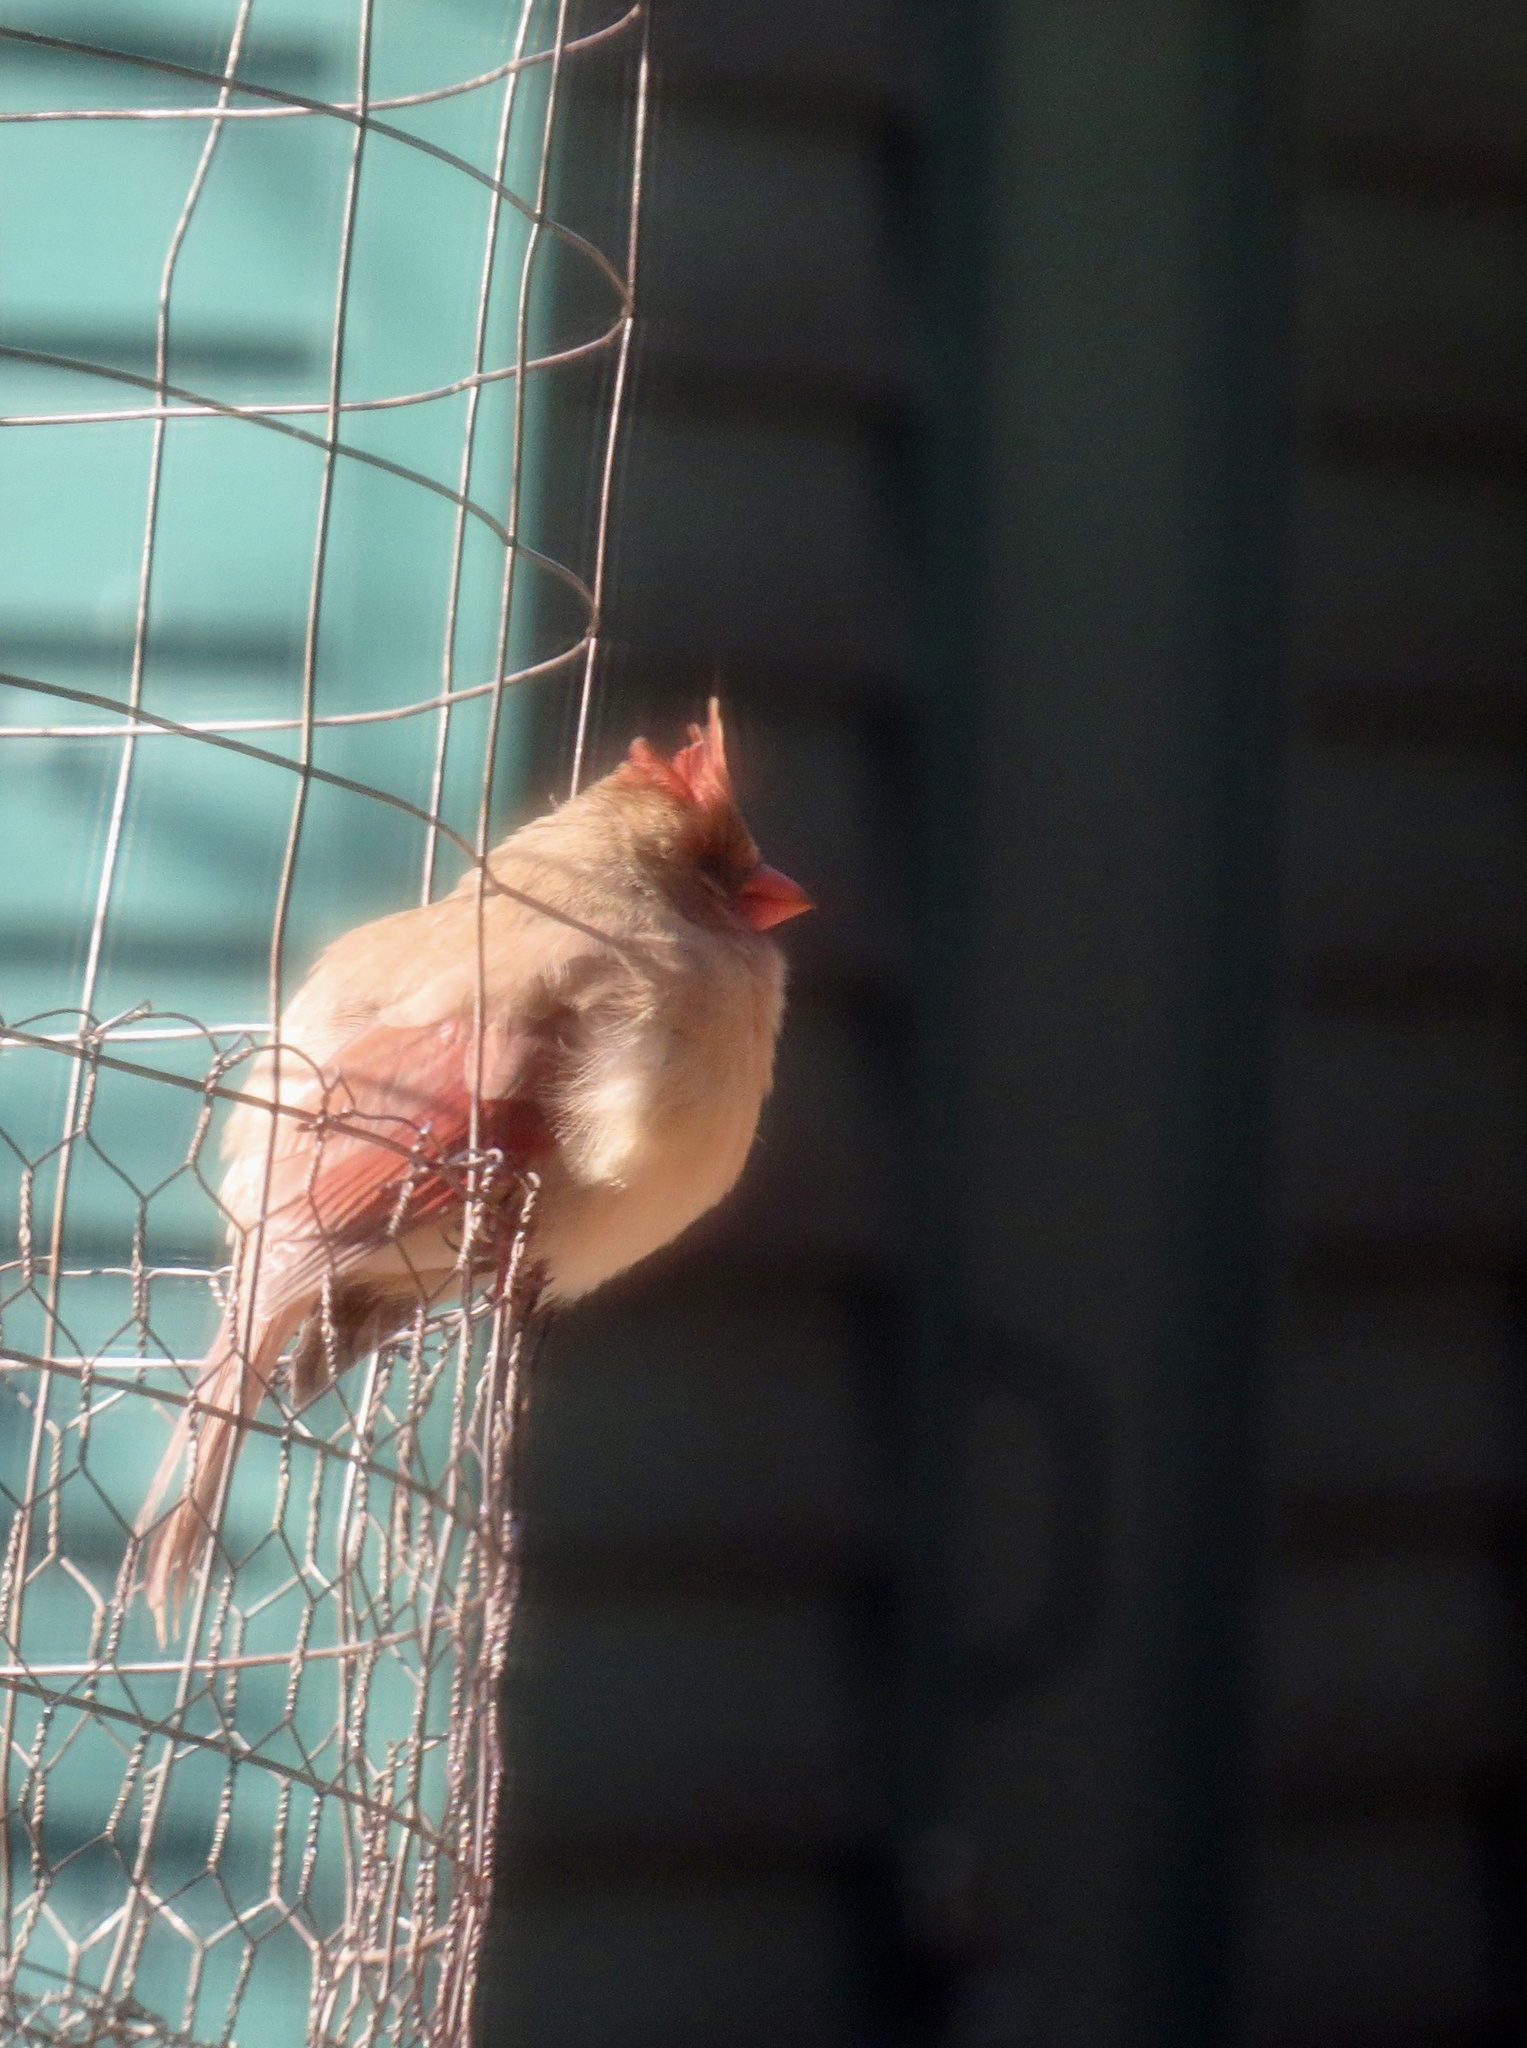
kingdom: Animalia
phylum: Chordata
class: Aves
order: Passeriformes
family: Cardinalidae
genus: Cardinalis
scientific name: Cardinalis cardinalis
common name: Northern cardinal
